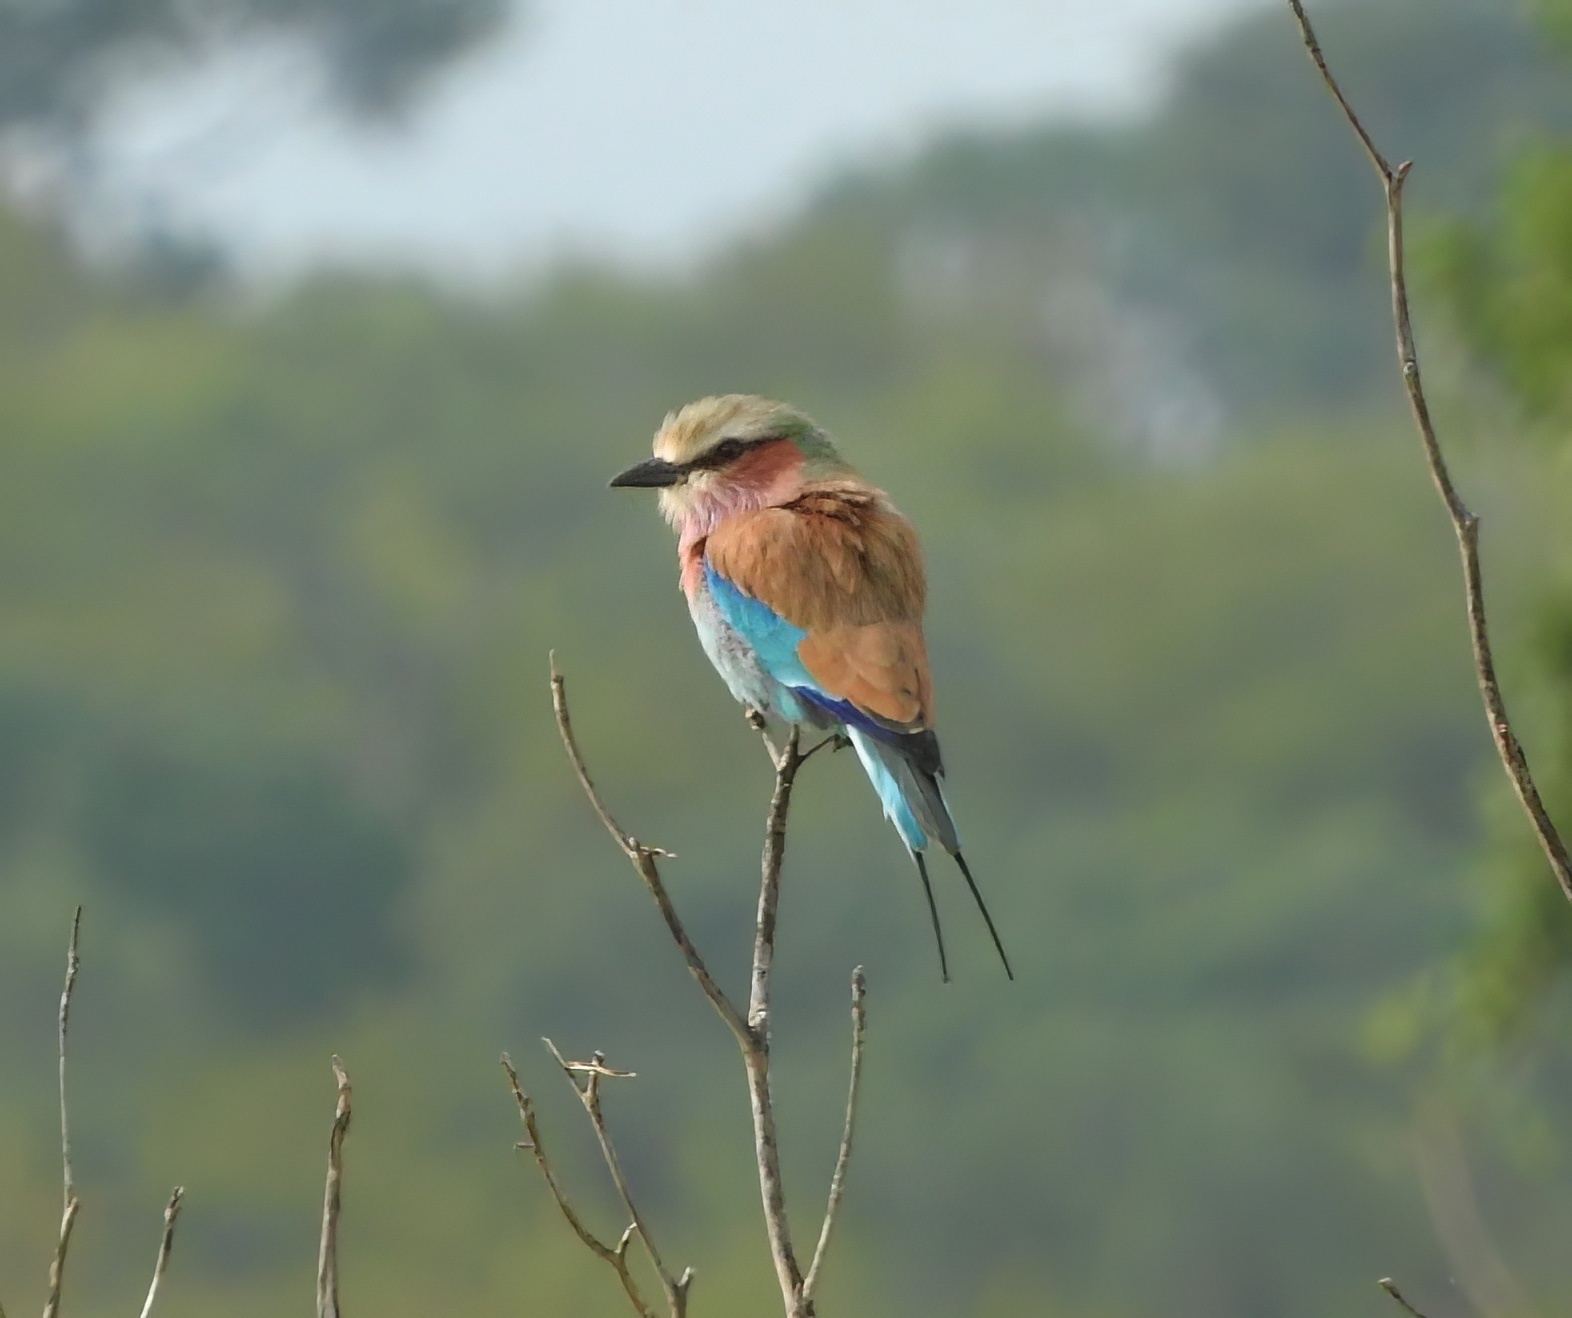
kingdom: Animalia
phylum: Chordata
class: Aves
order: Coraciiformes
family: Coraciidae
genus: Coracias
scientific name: Coracias caudatus
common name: Lilac-breasted roller
